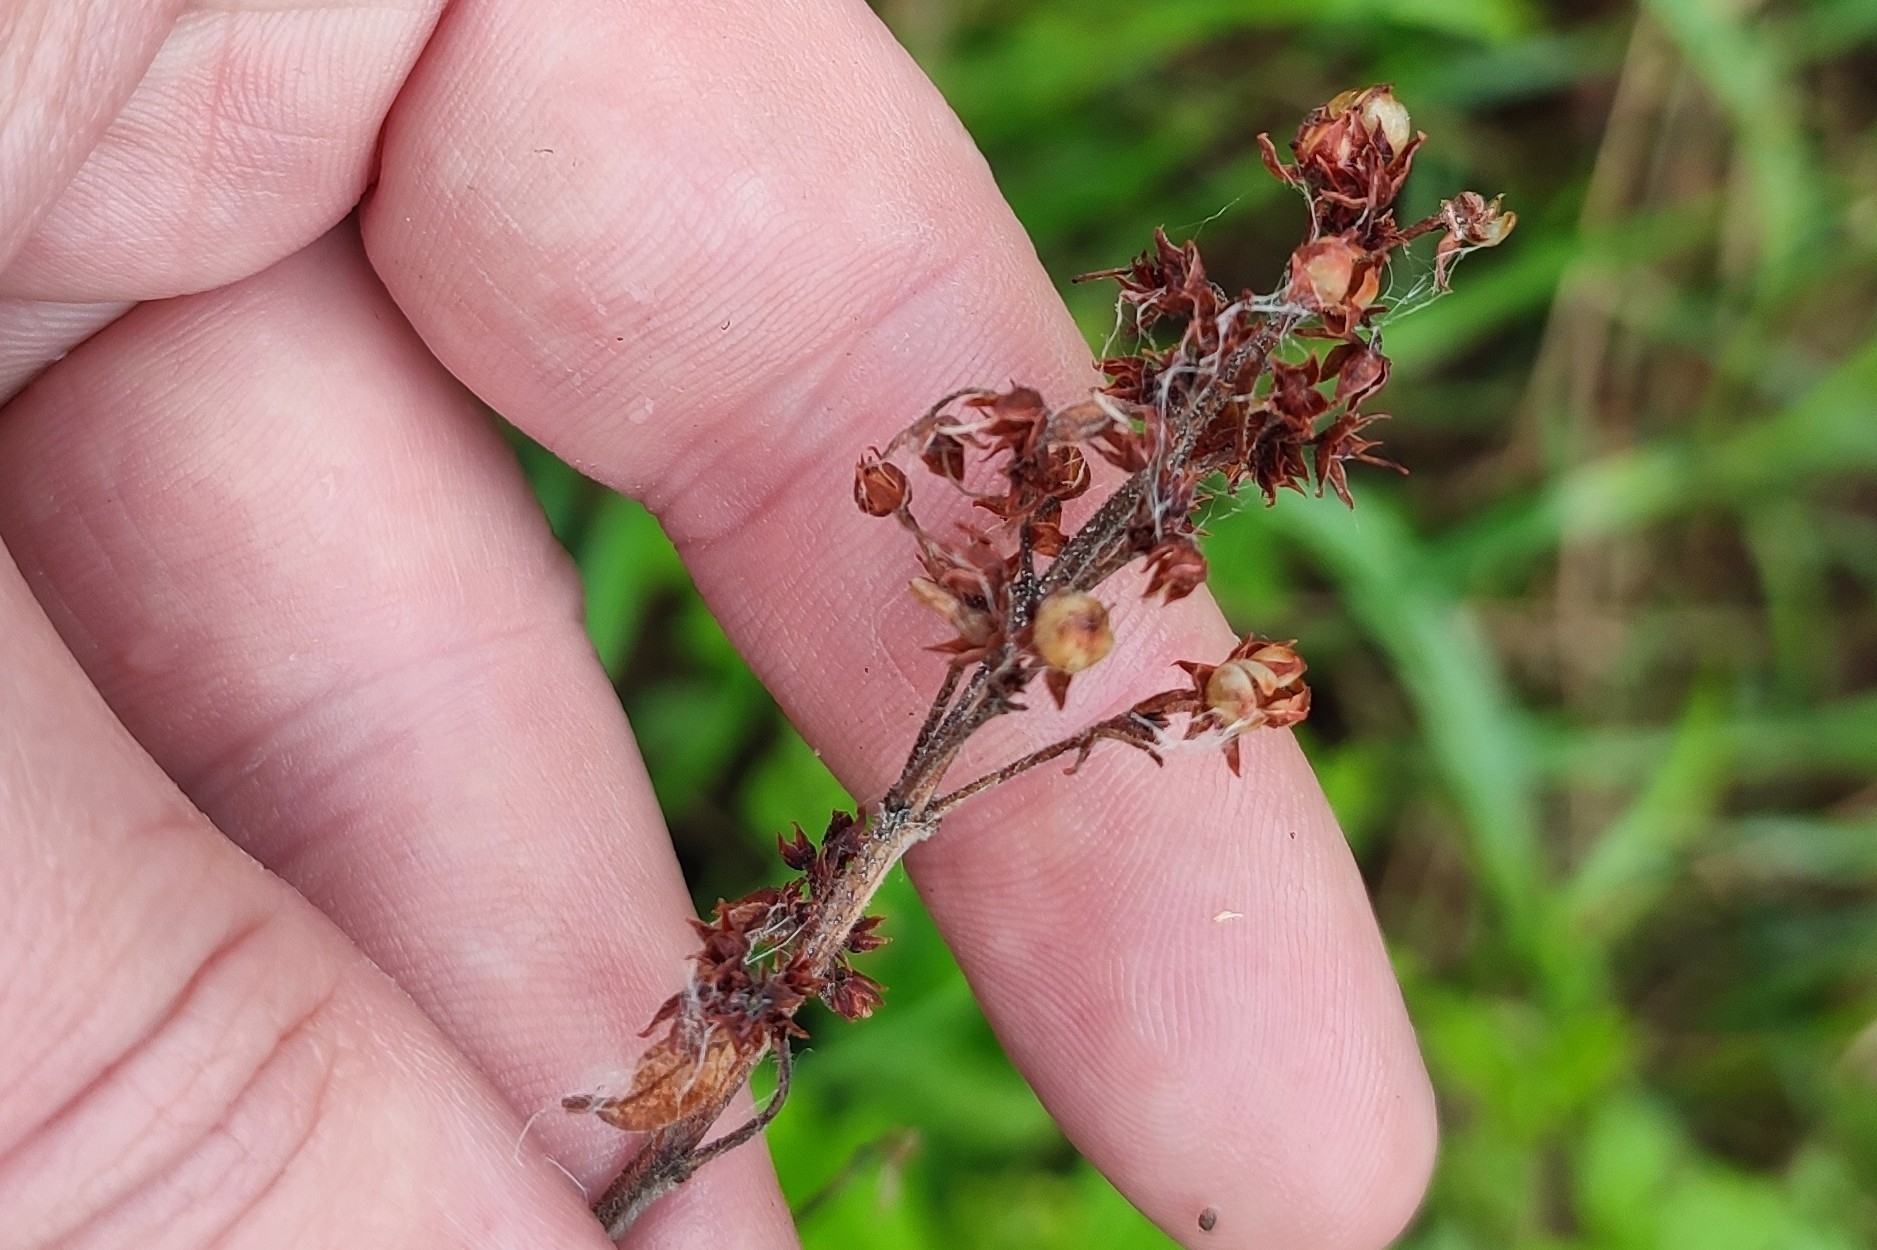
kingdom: Plantae
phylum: Tracheophyta
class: Magnoliopsida
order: Ericales
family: Primulaceae
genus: Lysimachia
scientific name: Lysimachia vulgaris
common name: Yellow loosestrife
